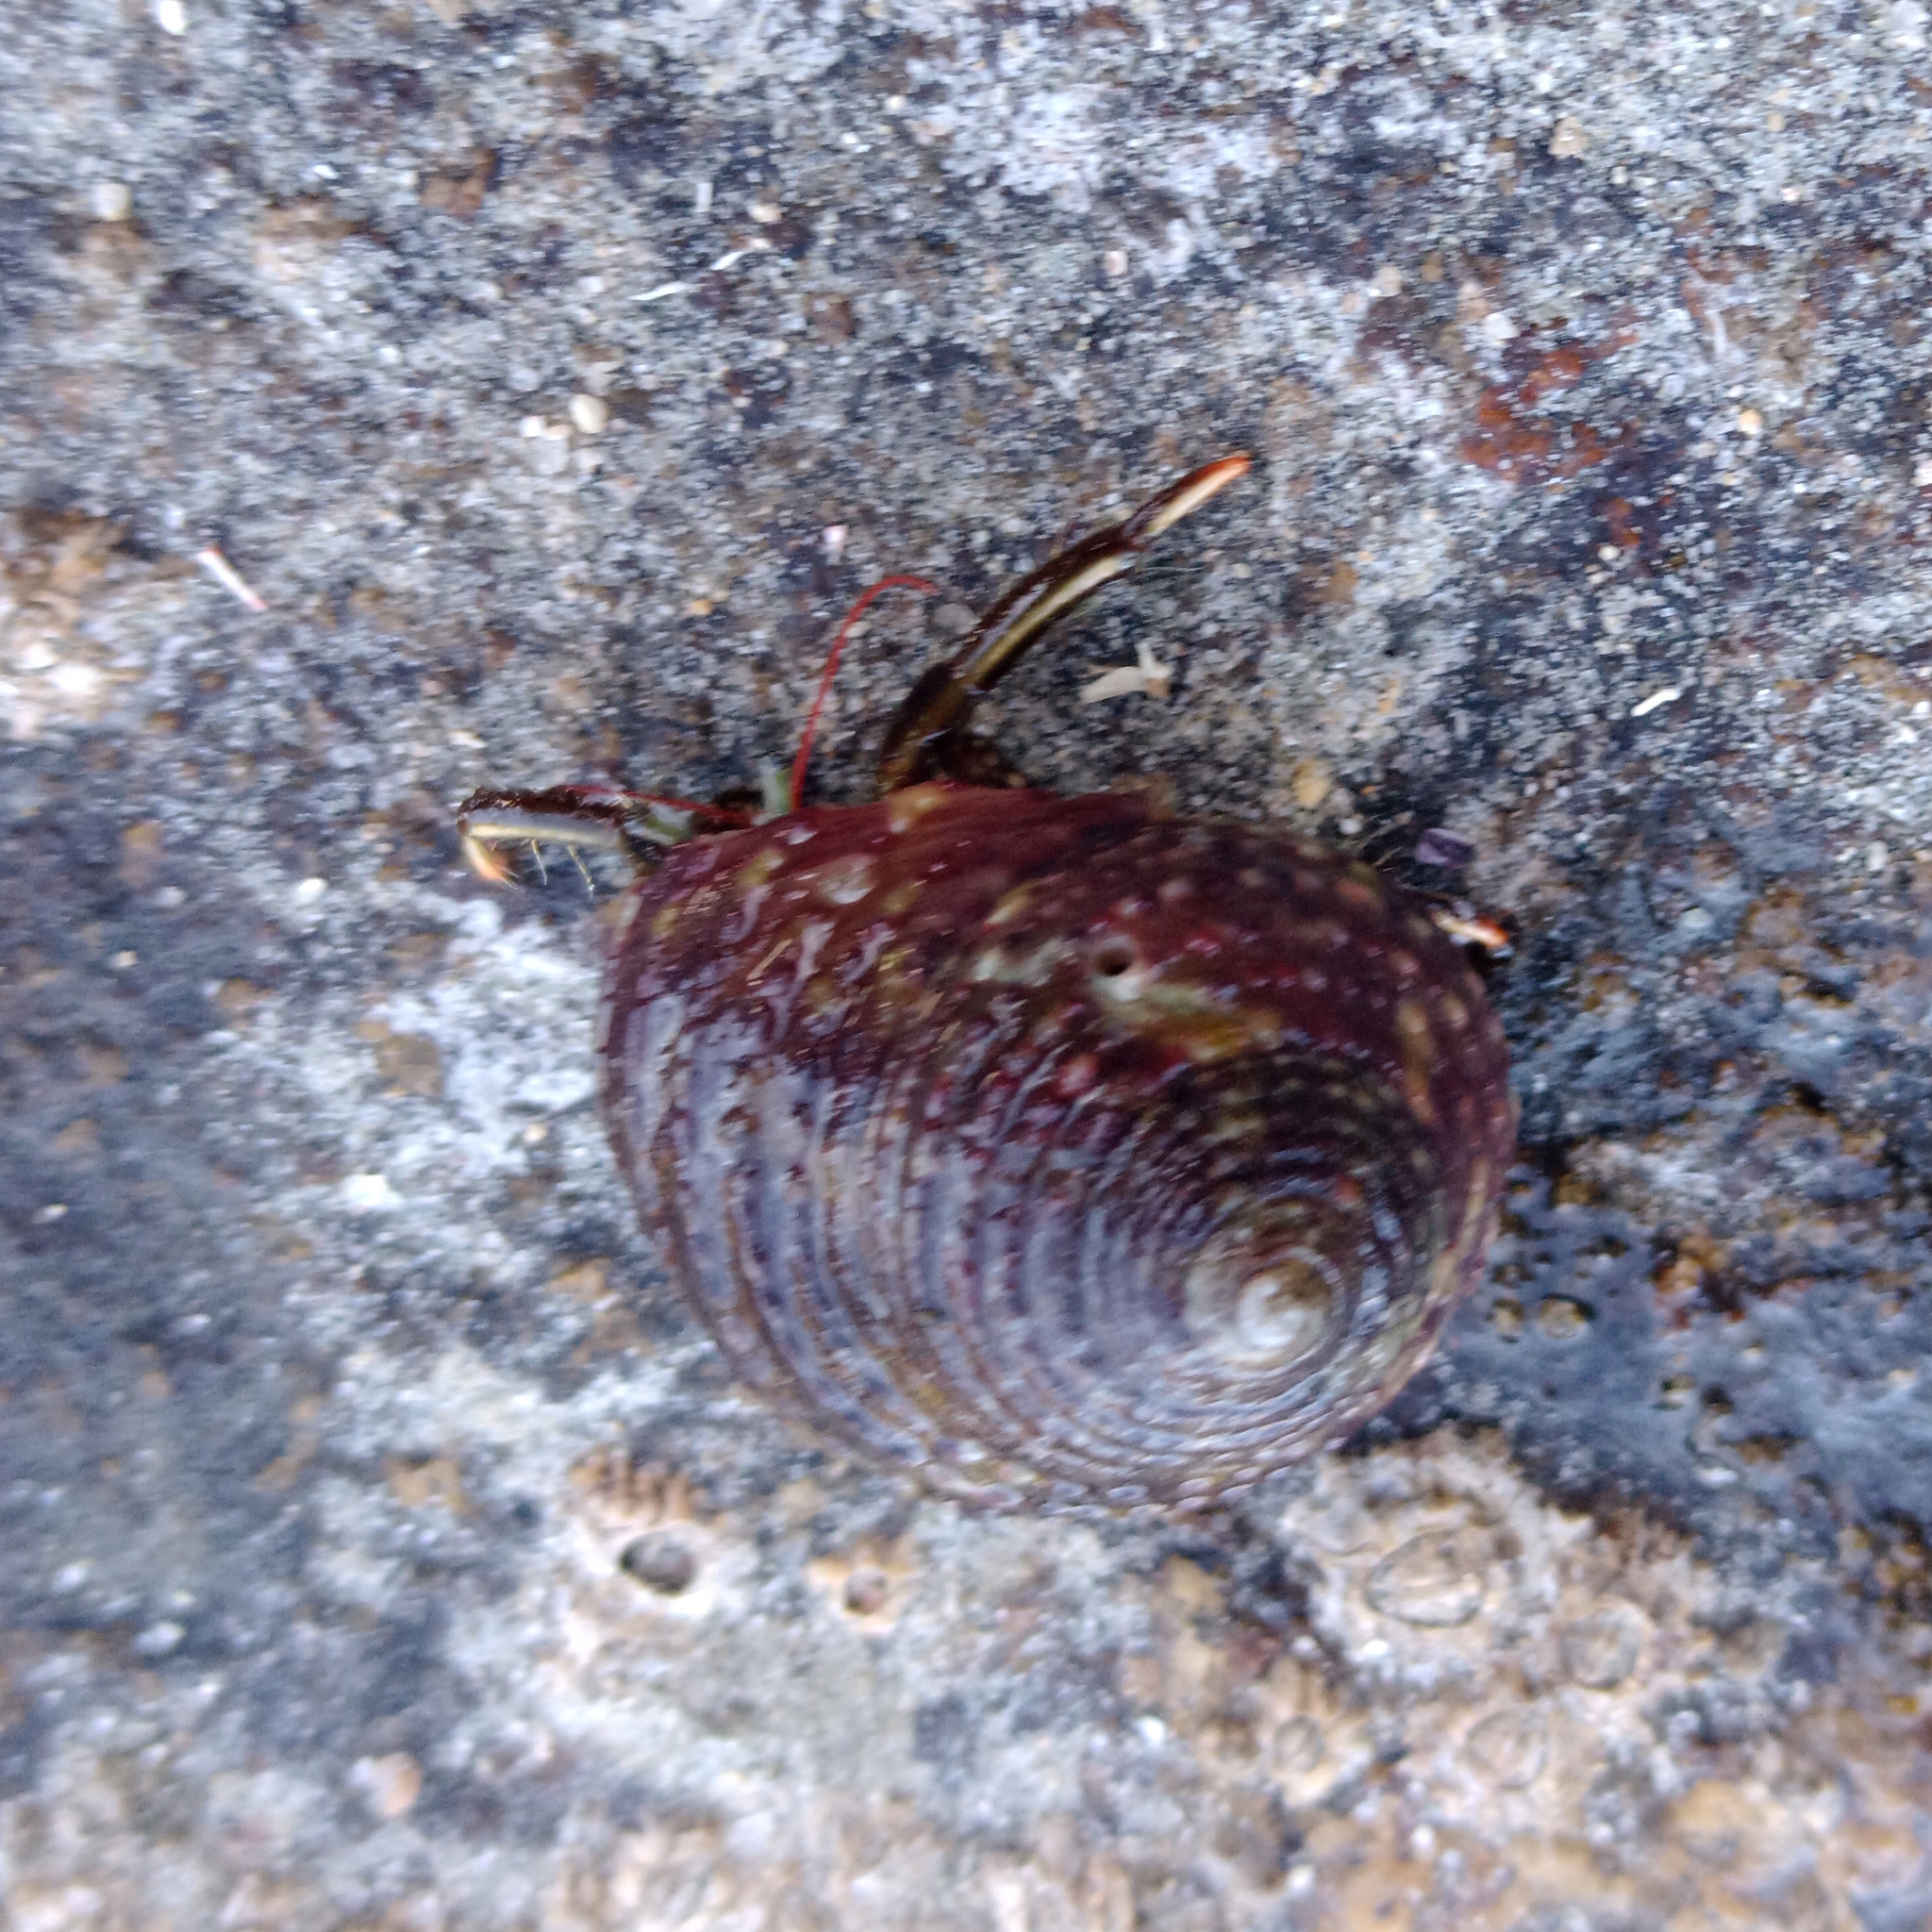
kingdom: Animalia
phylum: Arthropoda
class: Malacostraca
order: Decapoda
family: Diogenidae
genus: Clibanarius
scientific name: Clibanarius brasiliensis
